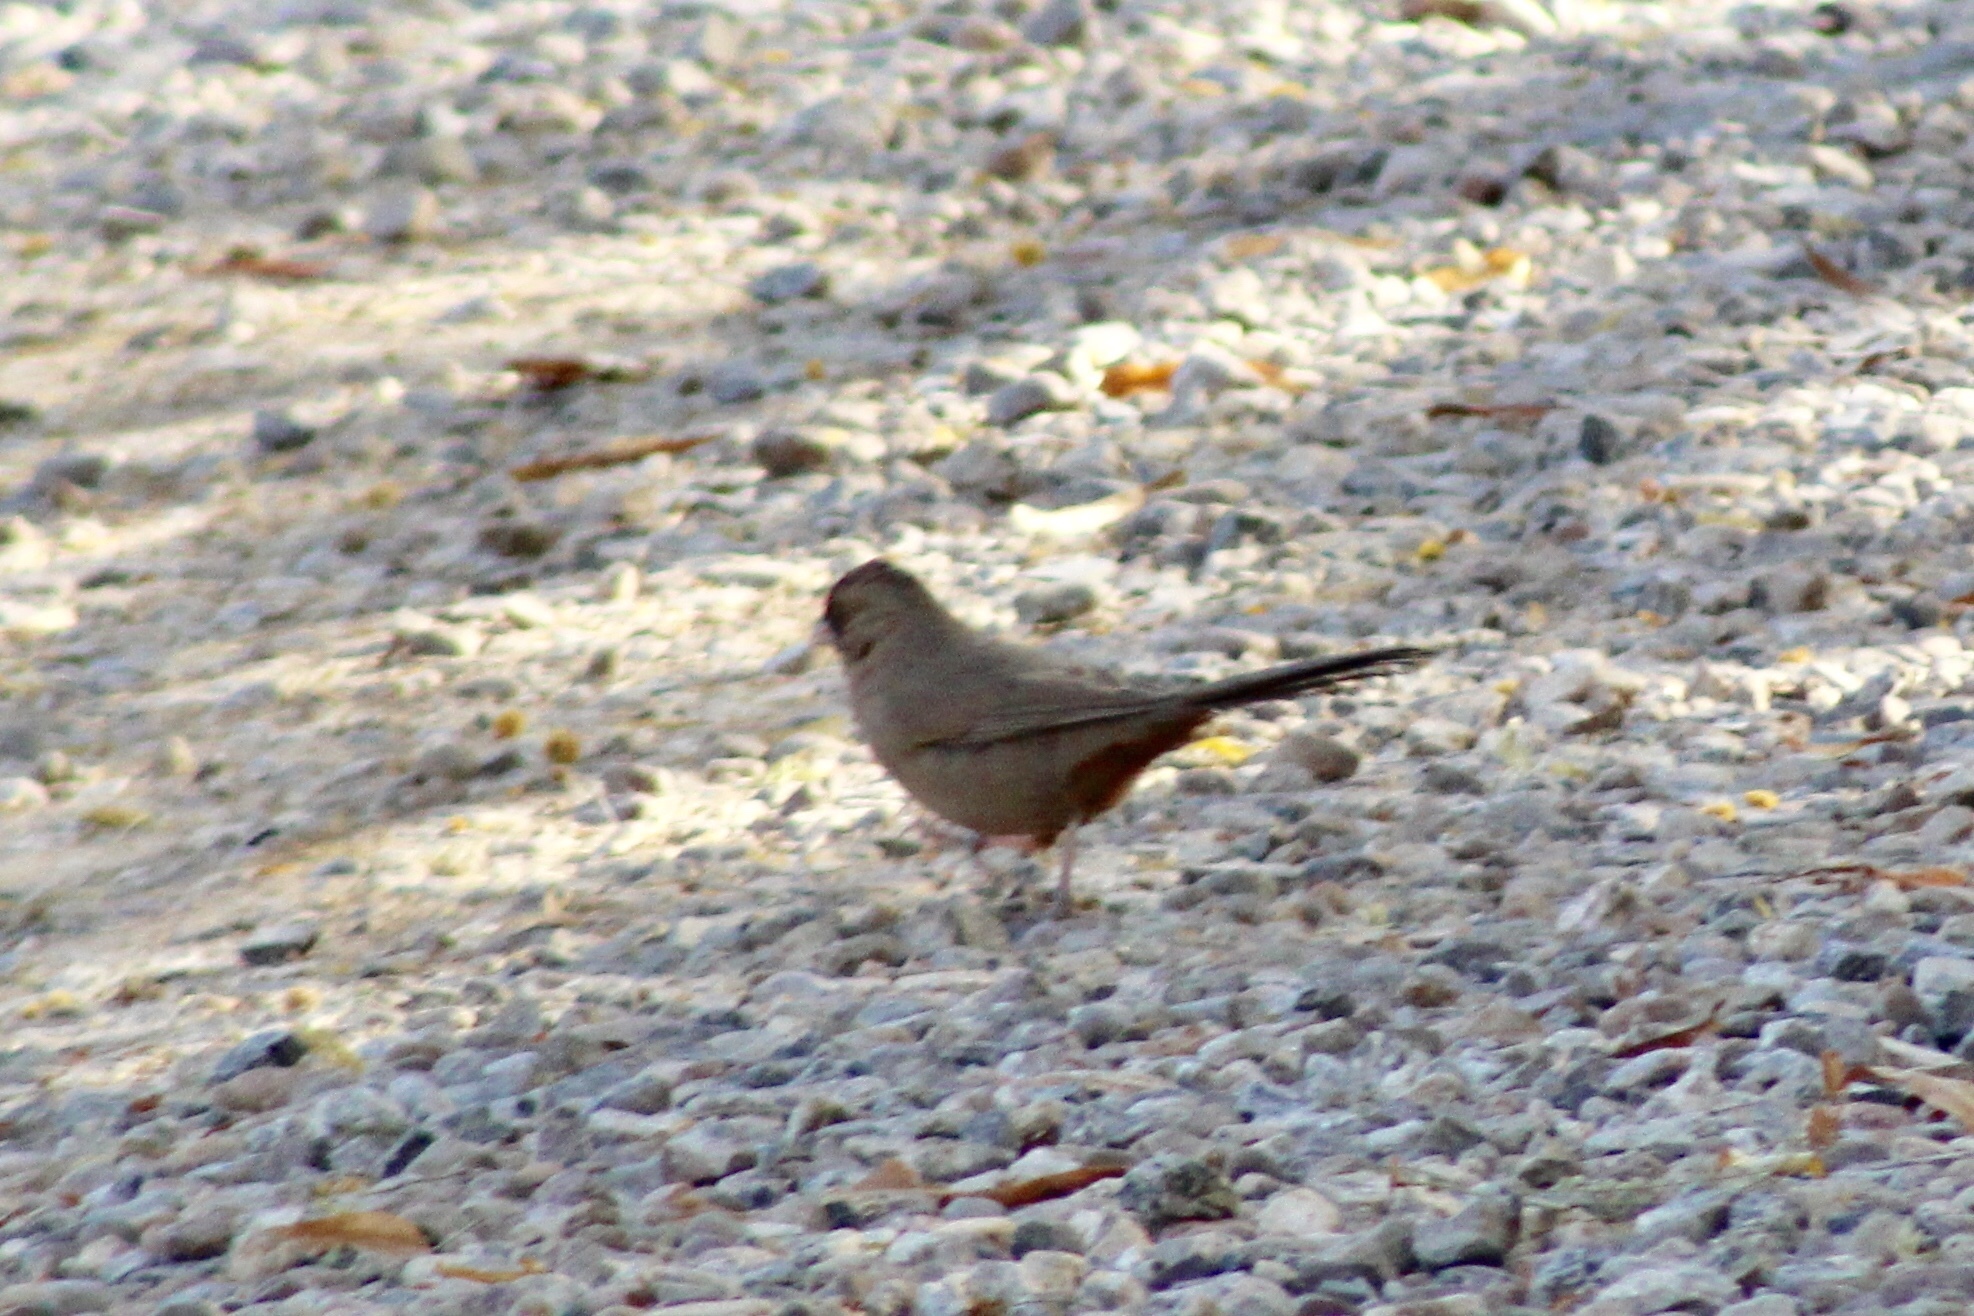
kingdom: Animalia
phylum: Chordata
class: Aves
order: Passeriformes
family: Passerellidae
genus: Melozone
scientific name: Melozone aberti
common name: Abert's towhee
